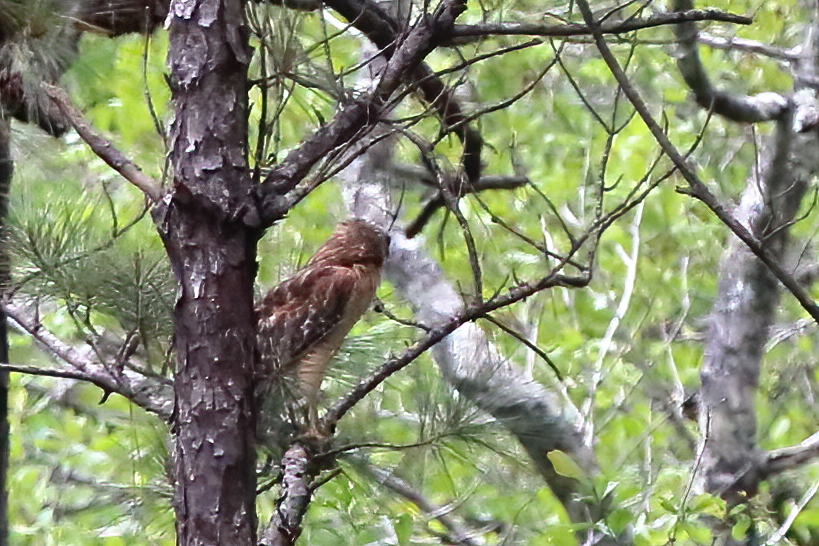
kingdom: Animalia
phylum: Chordata
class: Aves
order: Accipitriformes
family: Accipitridae
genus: Buteo
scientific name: Buteo lineatus
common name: Red-shouldered hawk
